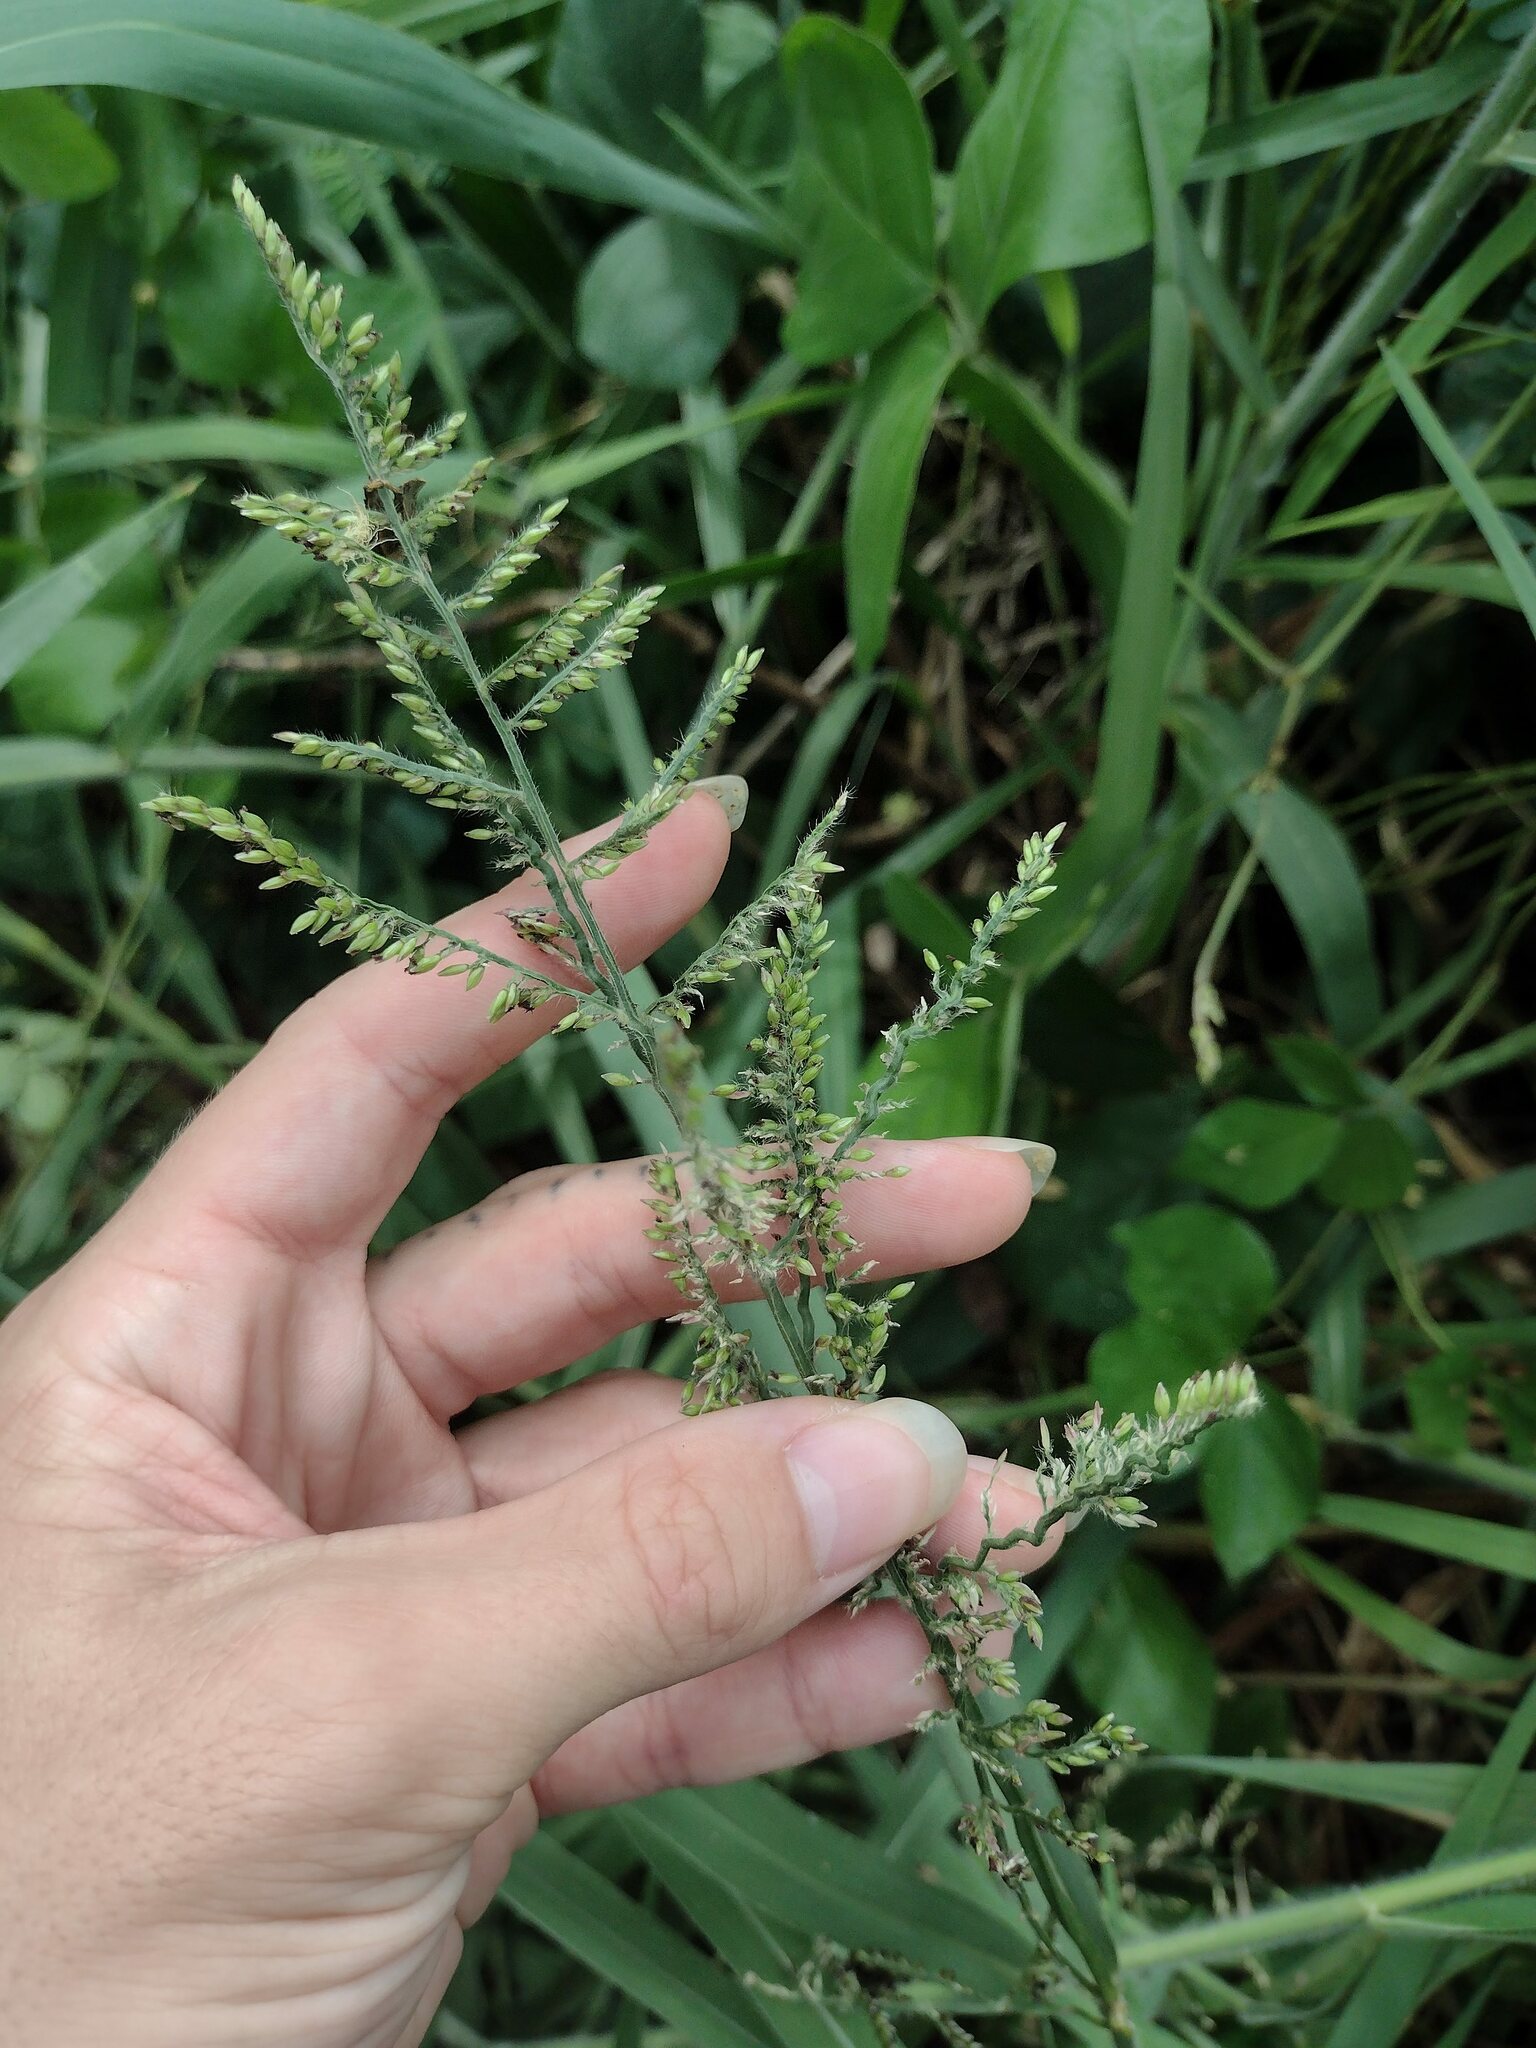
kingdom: Plantae
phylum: Tracheophyta
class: Liliopsida
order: Poales
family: Poaceae
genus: Urochloa
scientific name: Urochloa mutica
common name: Para grass
